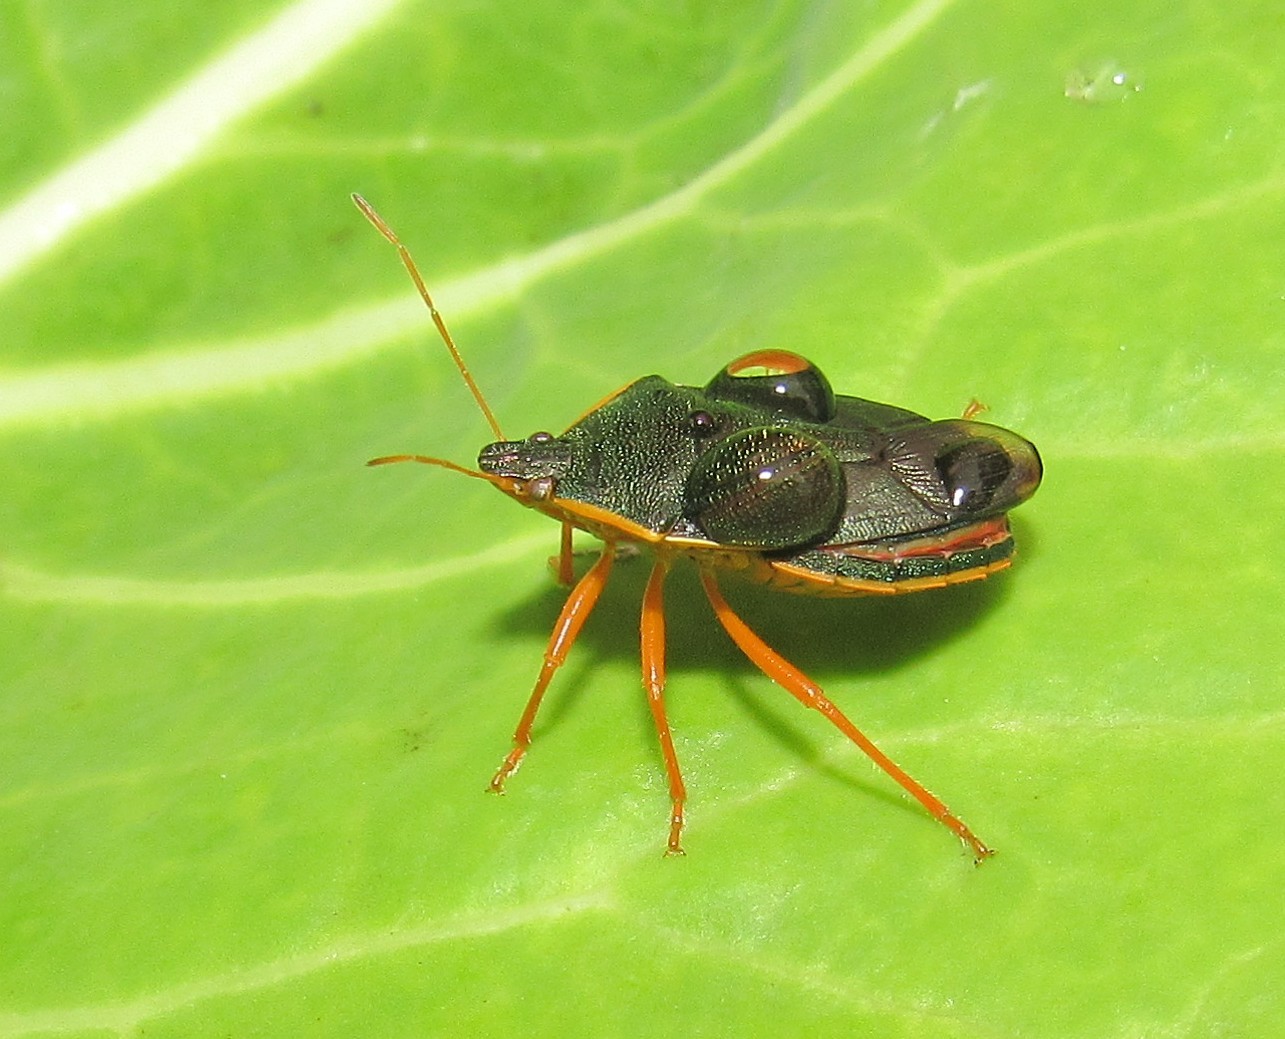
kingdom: Animalia
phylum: Arthropoda
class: Insecta
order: Hemiptera
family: Pentatomidae
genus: Tynacantha
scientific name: Tynacantha marginata
